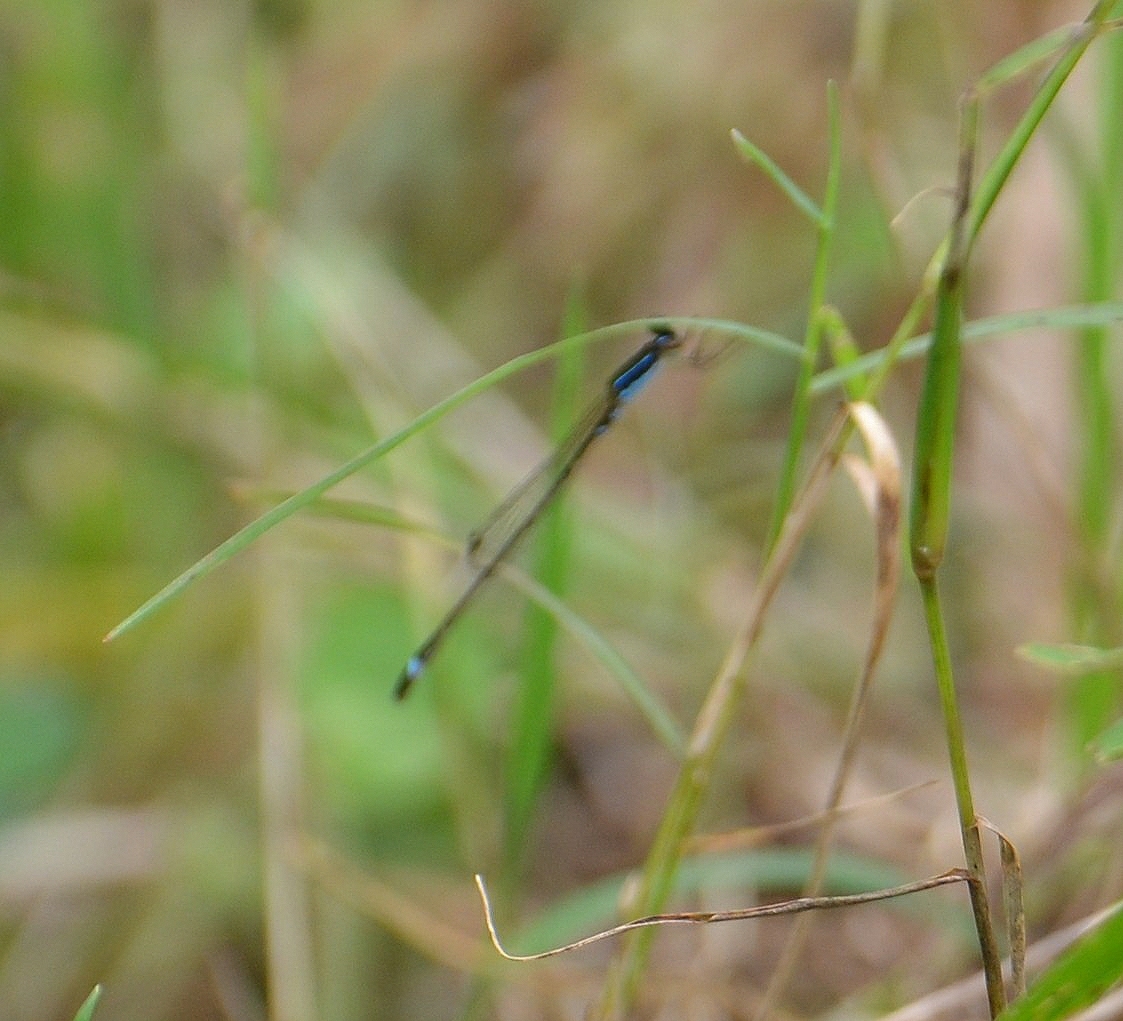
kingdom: Animalia
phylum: Arthropoda
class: Insecta
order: Odonata
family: Coenagrionidae
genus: Mortonagrion
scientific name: Mortonagrion varralli
